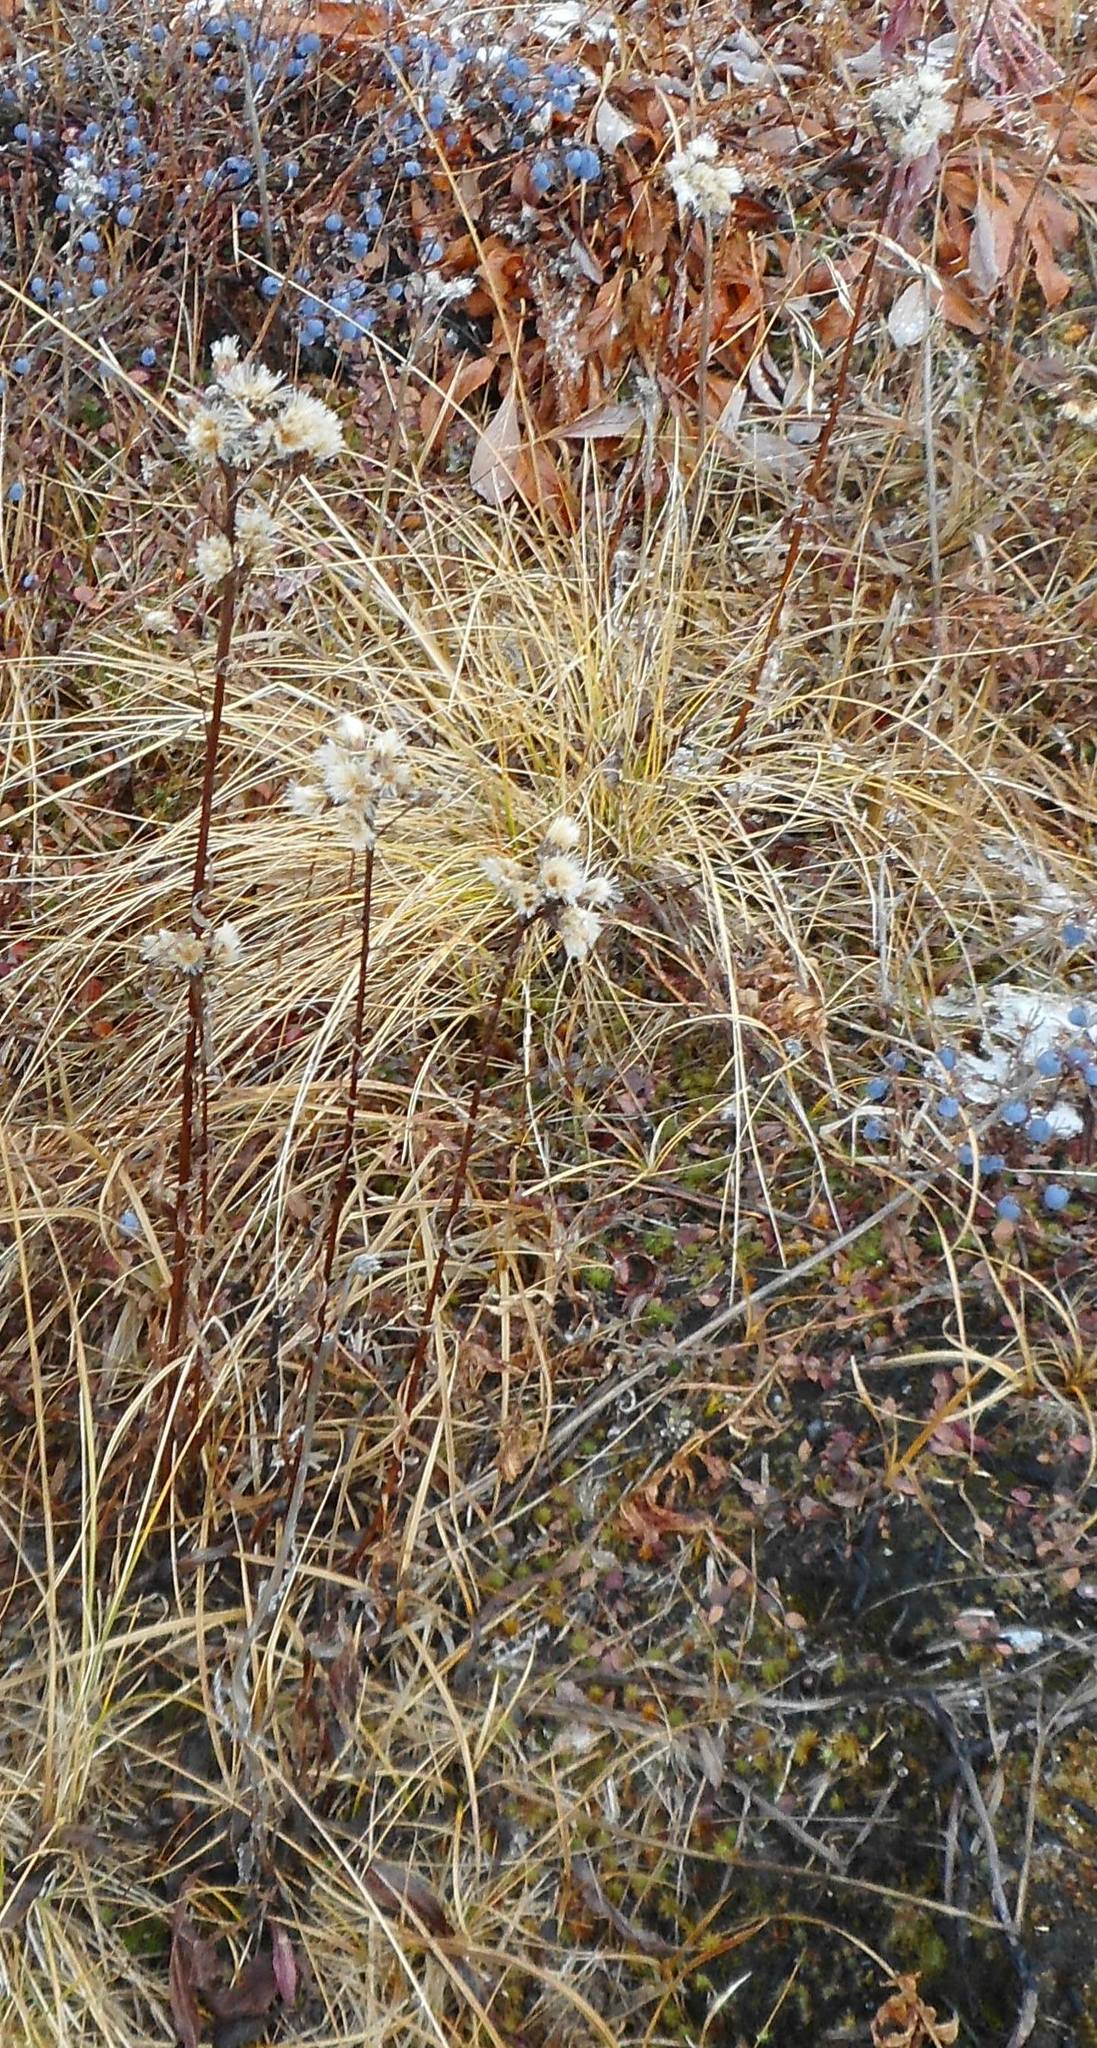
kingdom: Plantae
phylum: Tracheophyta
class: Magnoliopsida
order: Asterales
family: Asteraceae
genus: Saussurea
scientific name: Saussurea pseudotilesii
